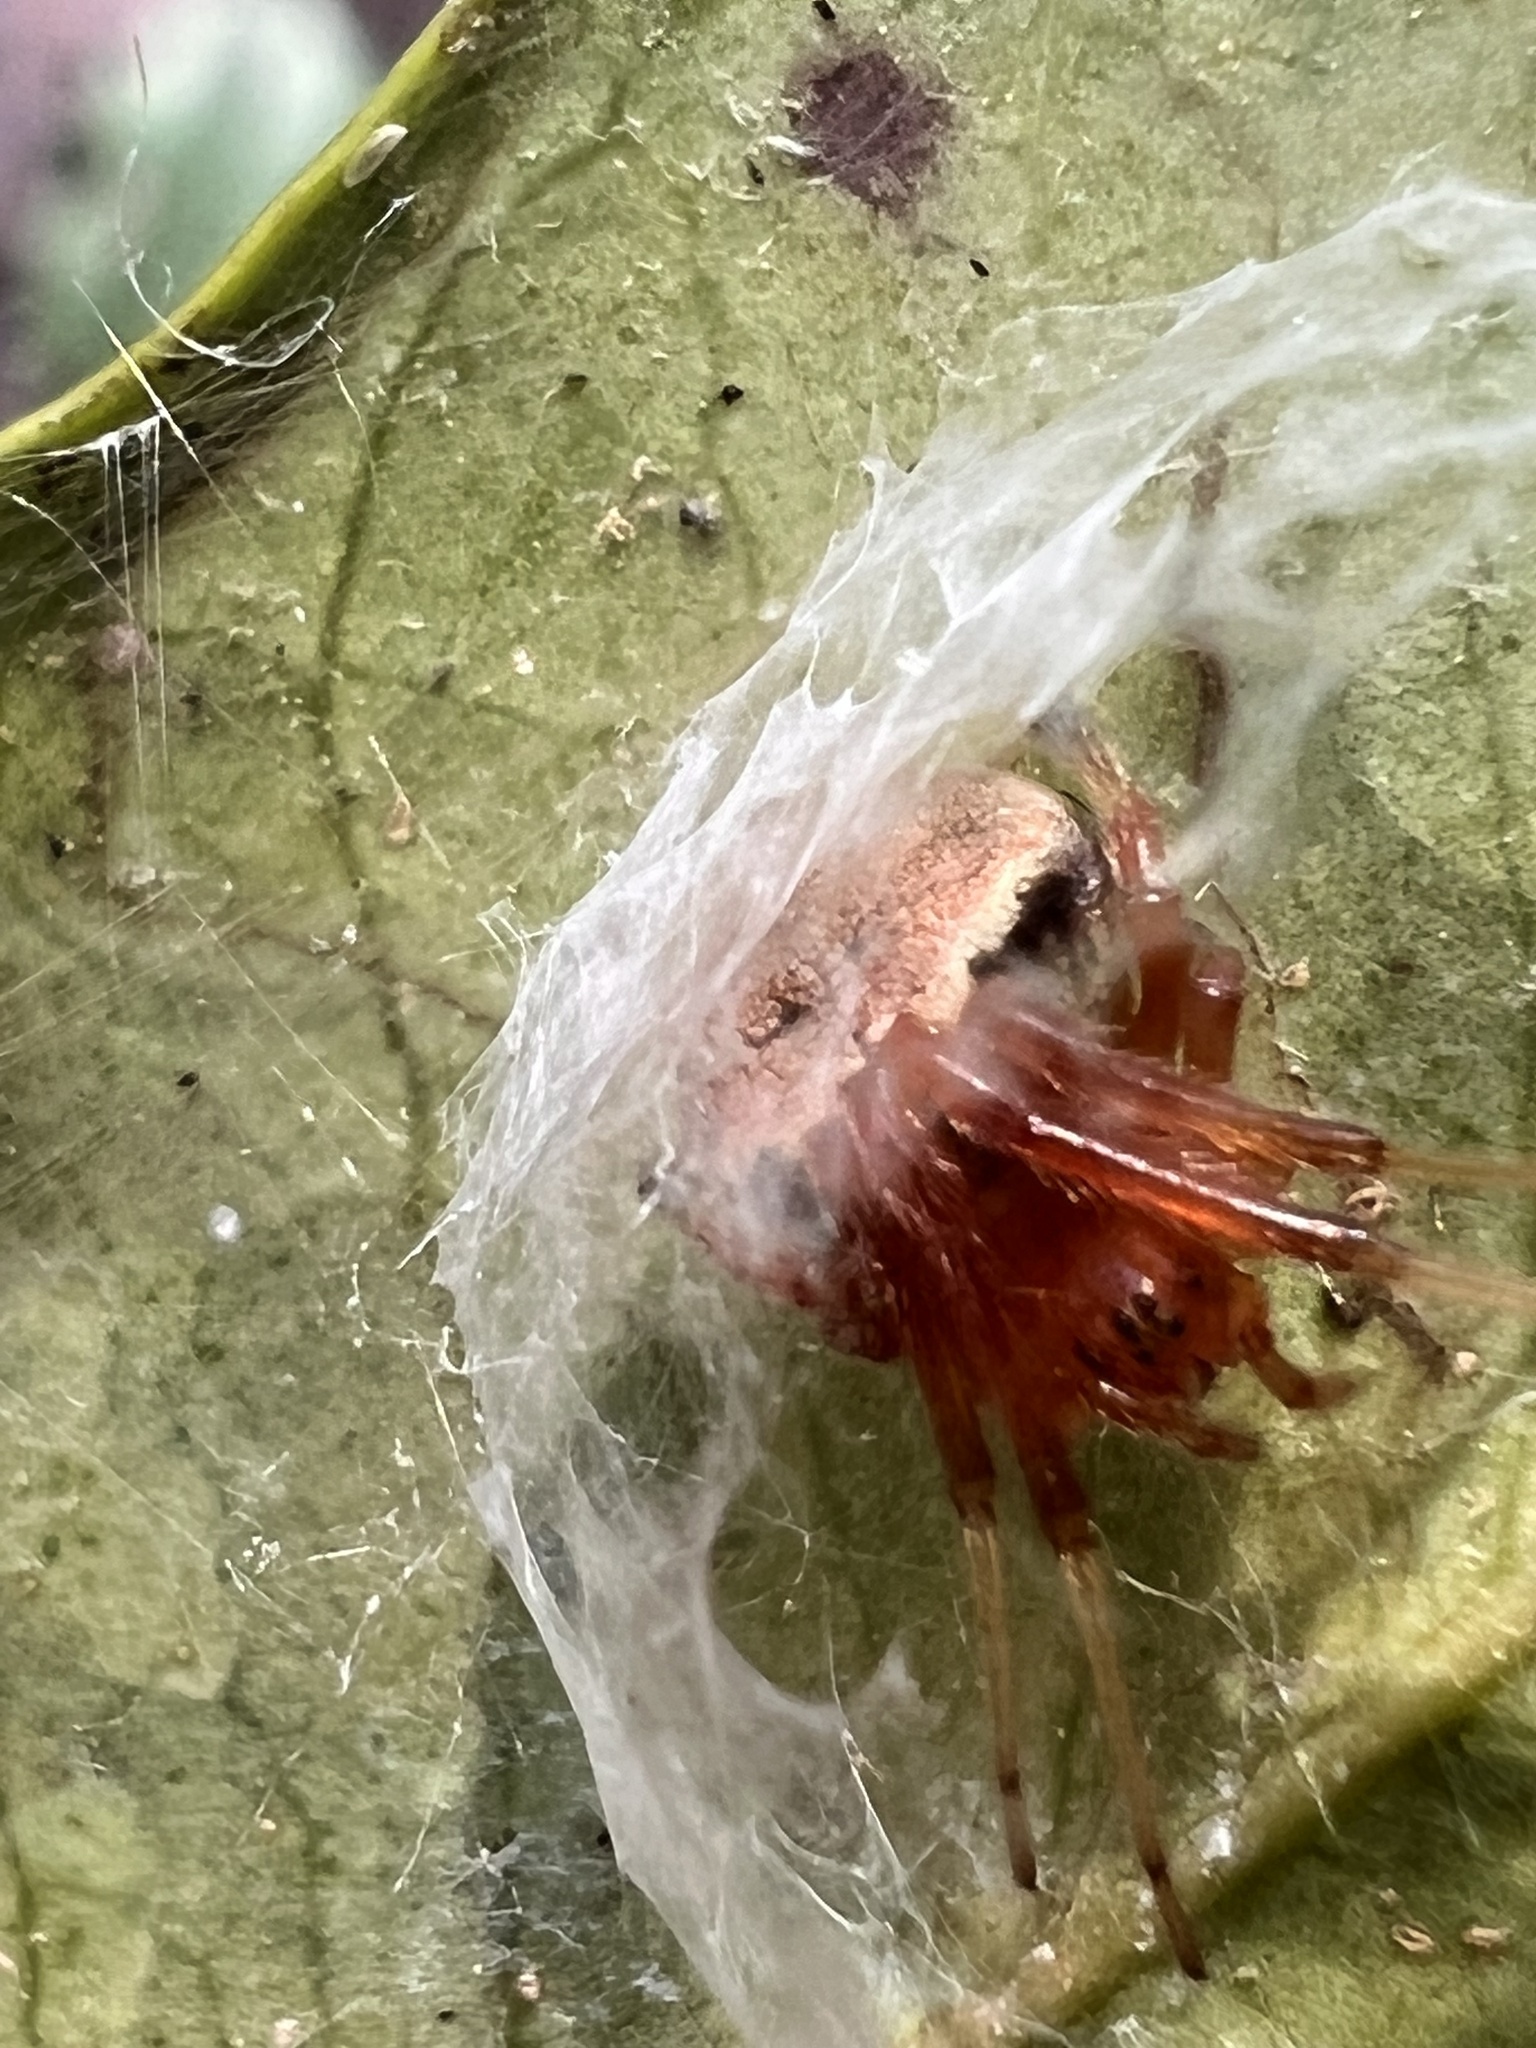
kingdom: Animalia
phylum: Arthropoda
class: Arachnida
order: Araneae
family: Araneidae
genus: Araneus
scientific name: Araneus thaddeus
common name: Lattice orbweaver
